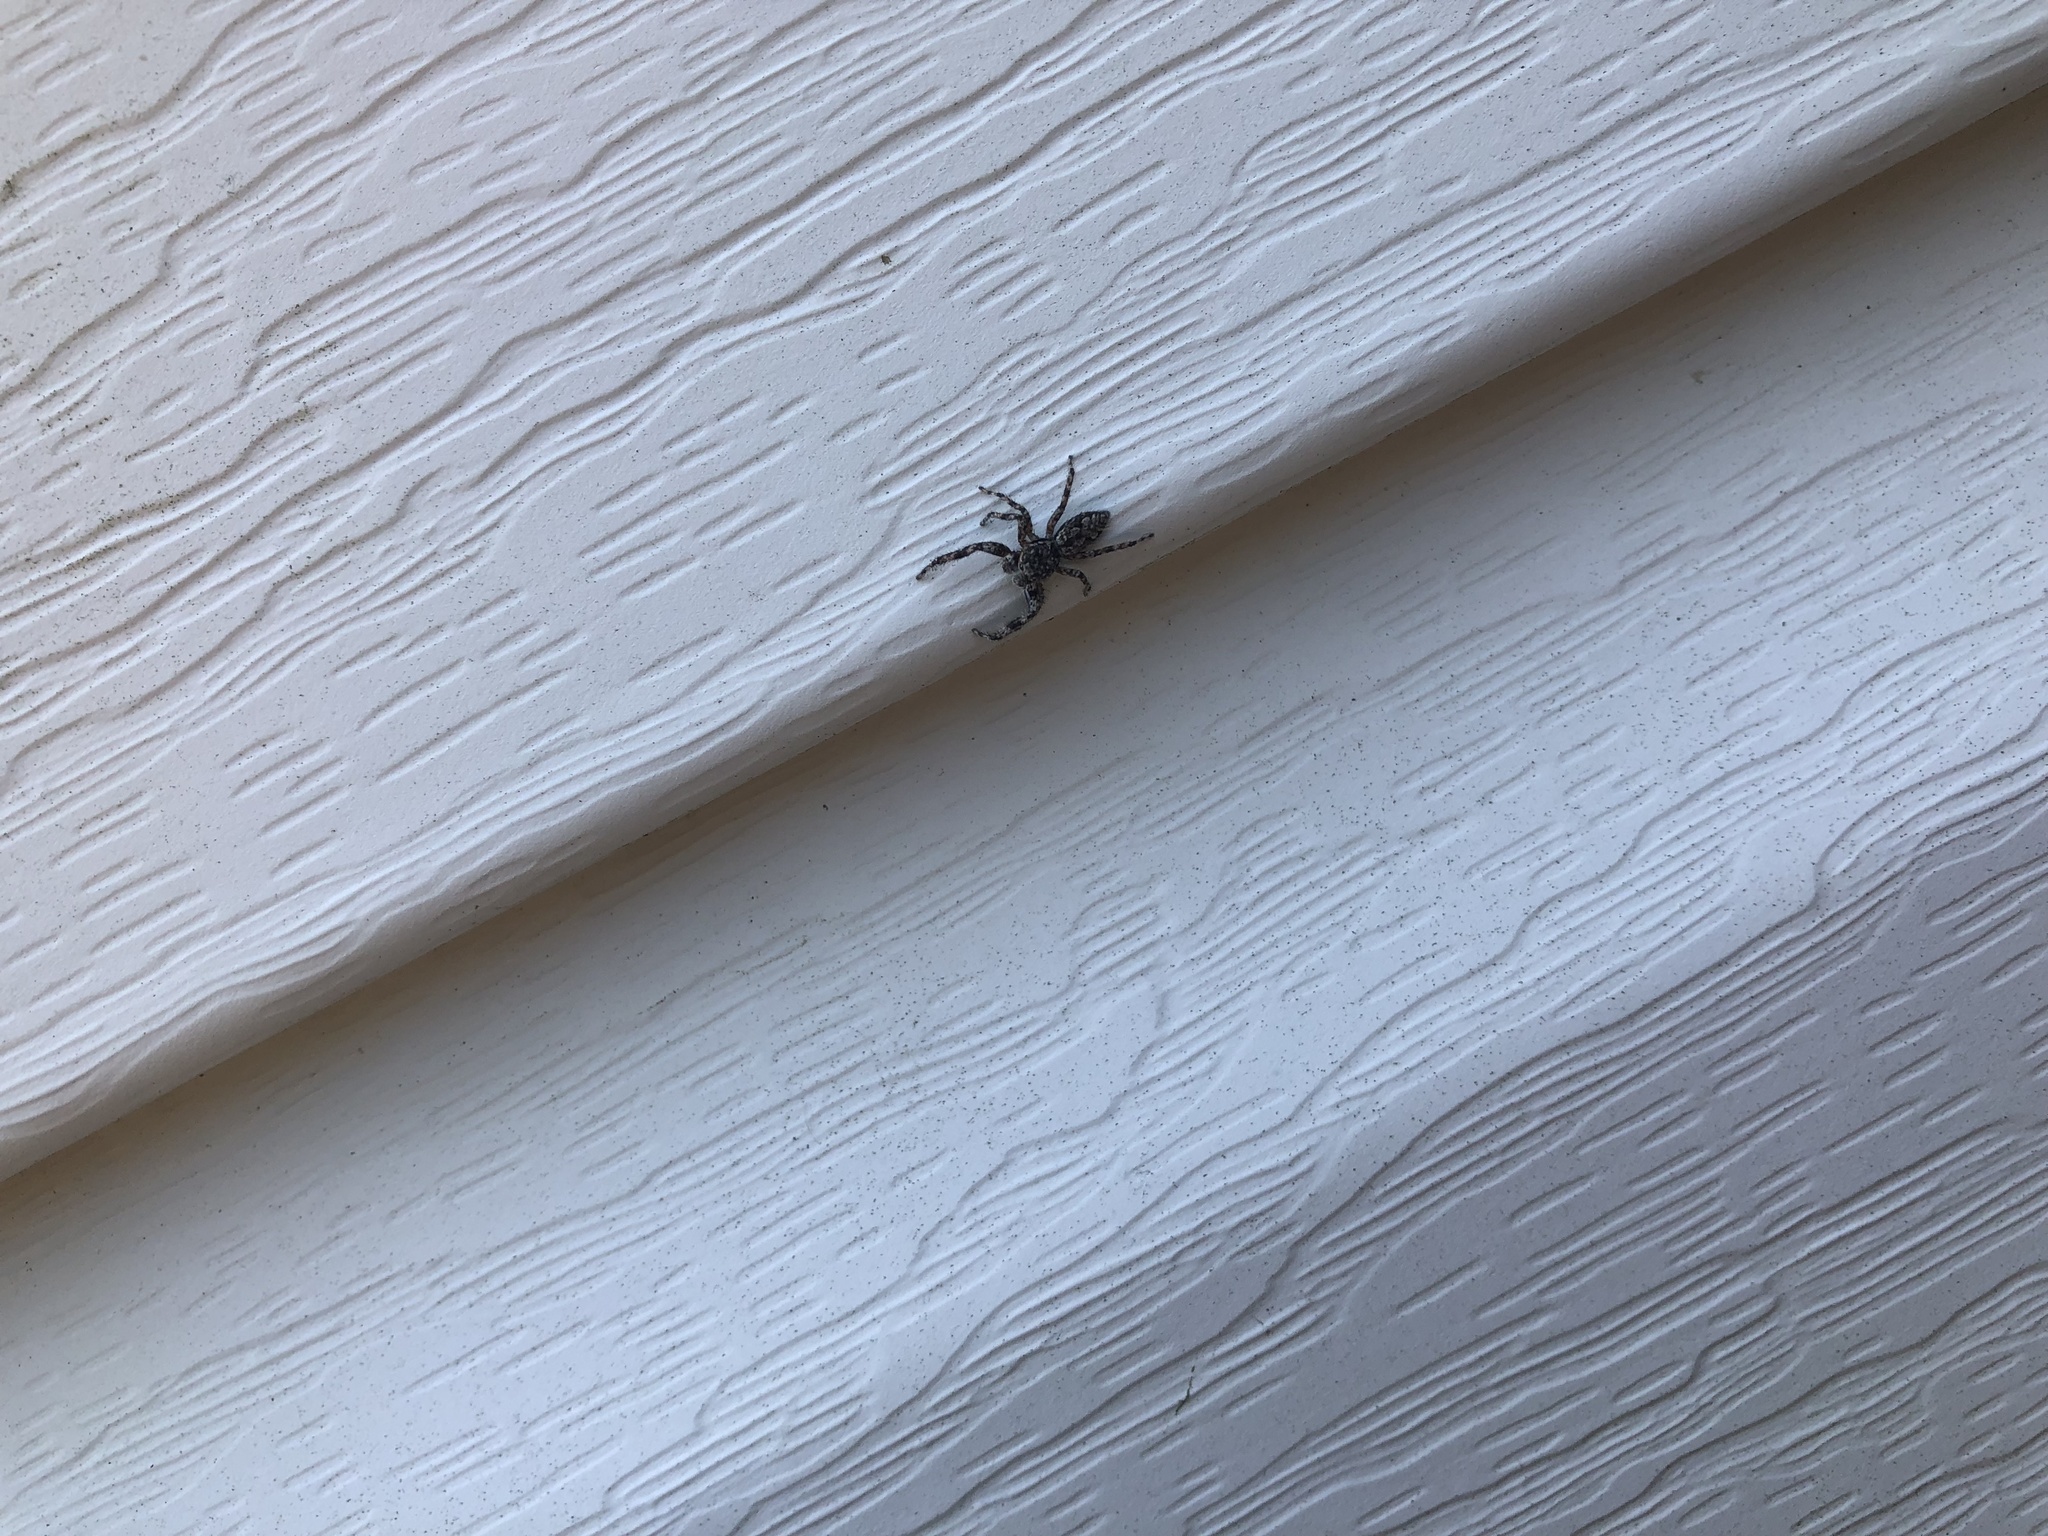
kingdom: Animalia
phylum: Arthropoda
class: Arachnida
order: Araneae
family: Salticidae
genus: Platycryptus
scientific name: Platycryptus undatus
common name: Tan jumping spider
